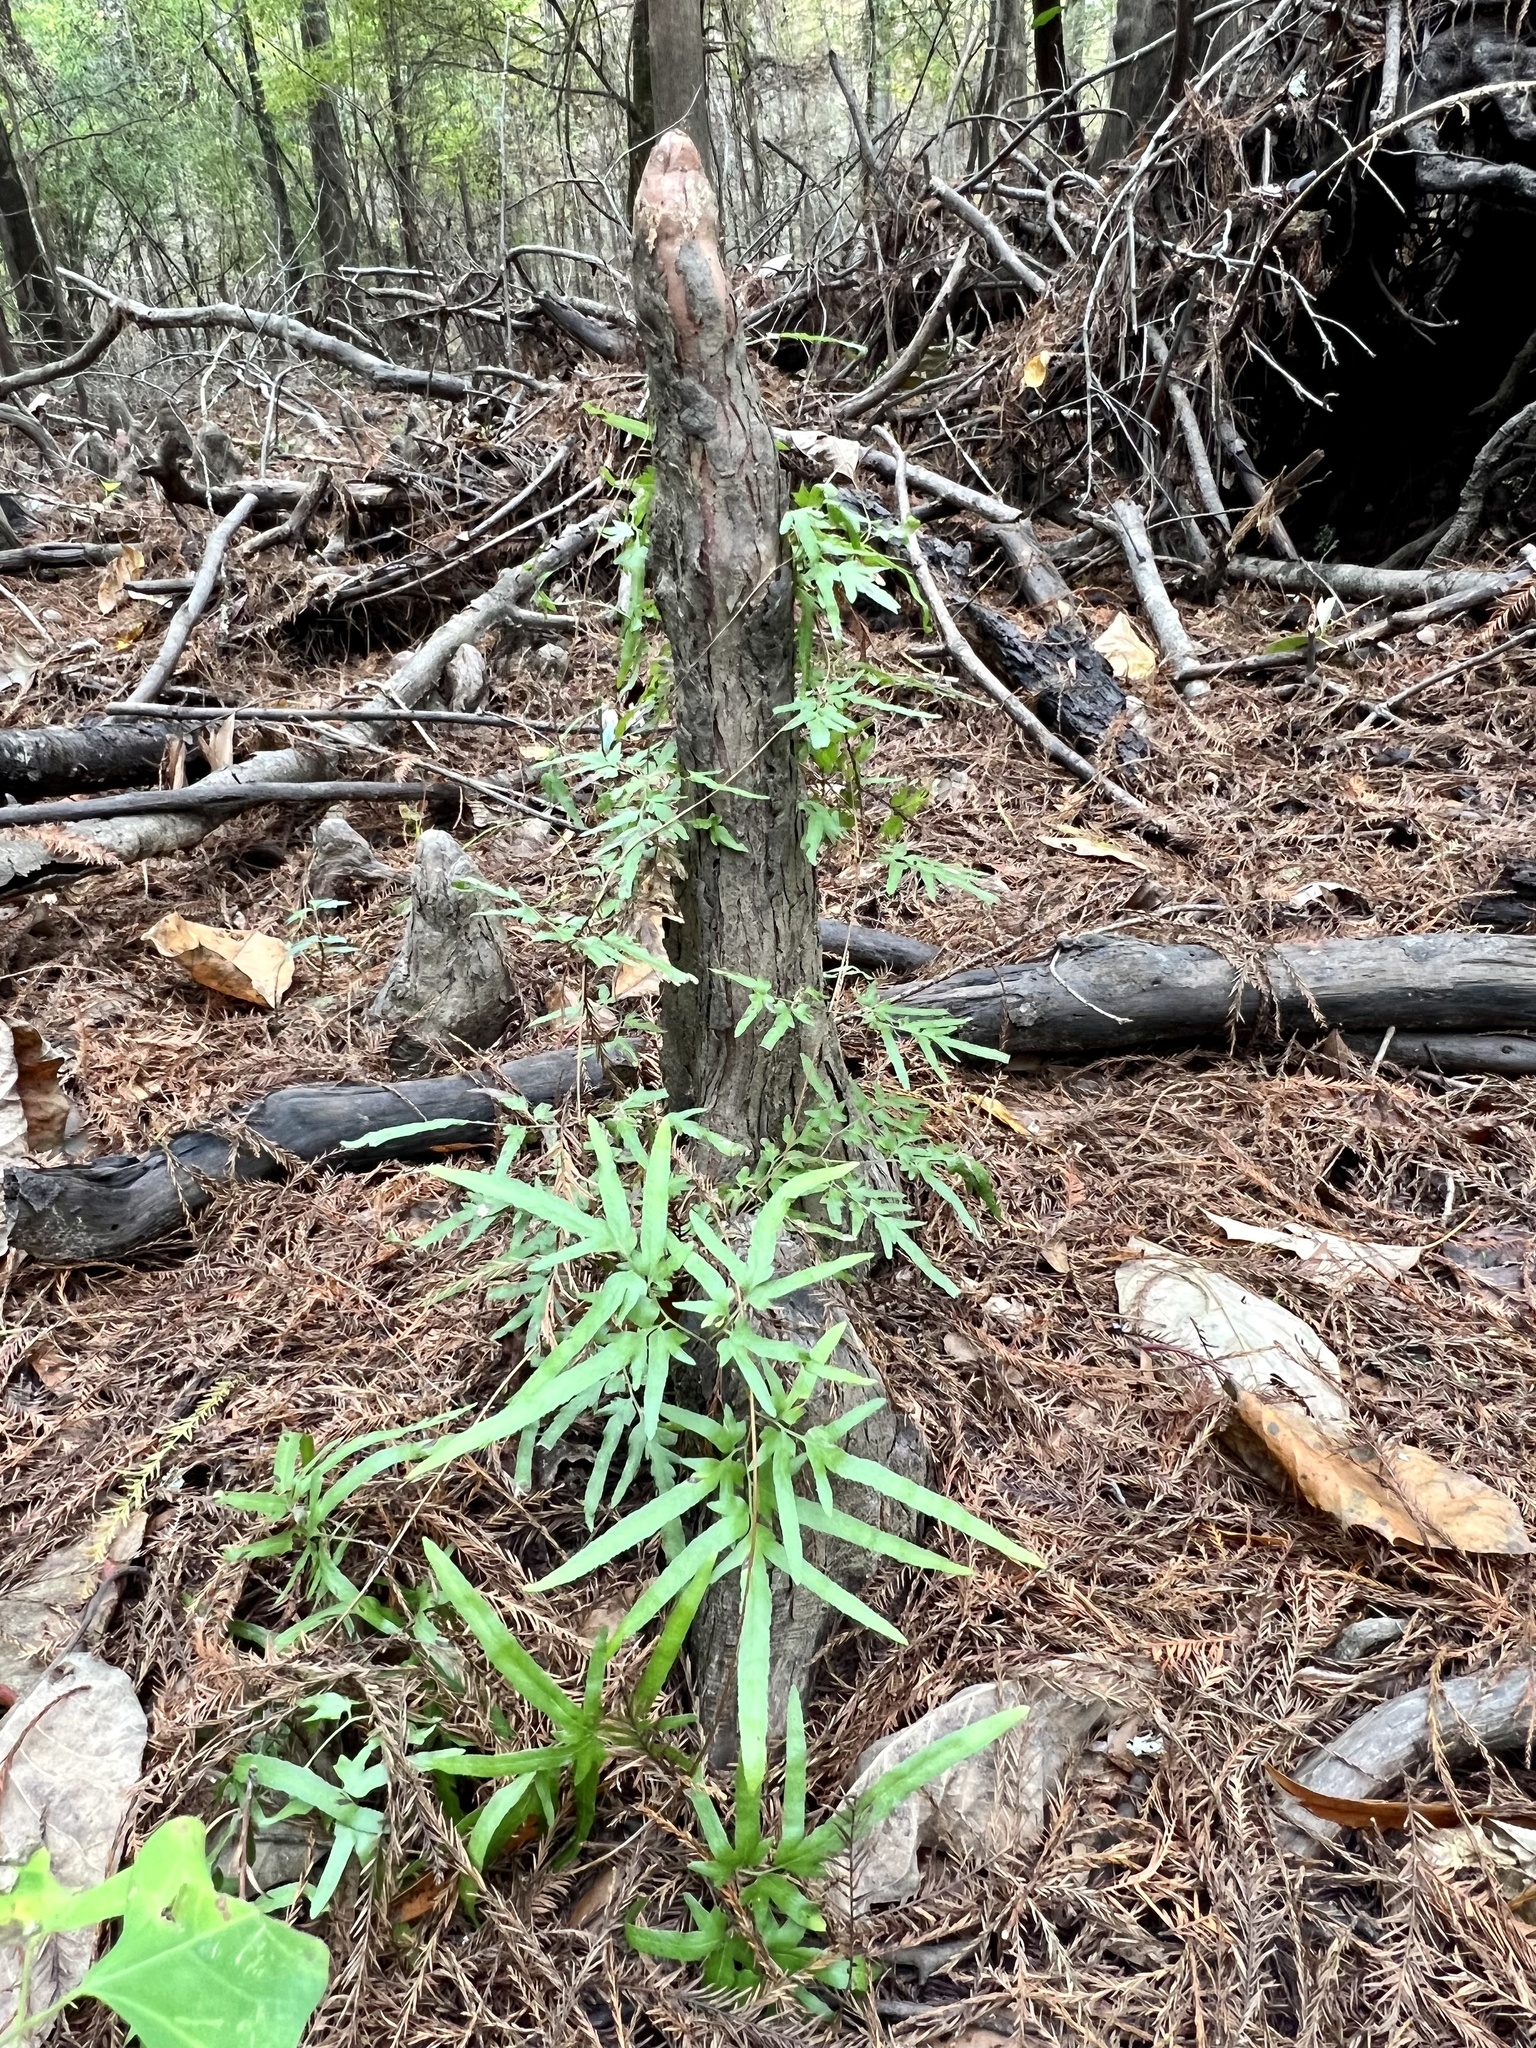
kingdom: Plantae
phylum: Tracheophyta
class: Polypodiopsida
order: Schizaeales
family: Lygodiaceae
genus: Lygodium
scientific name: Lygodium japonicum
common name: Japanese climbing fern
